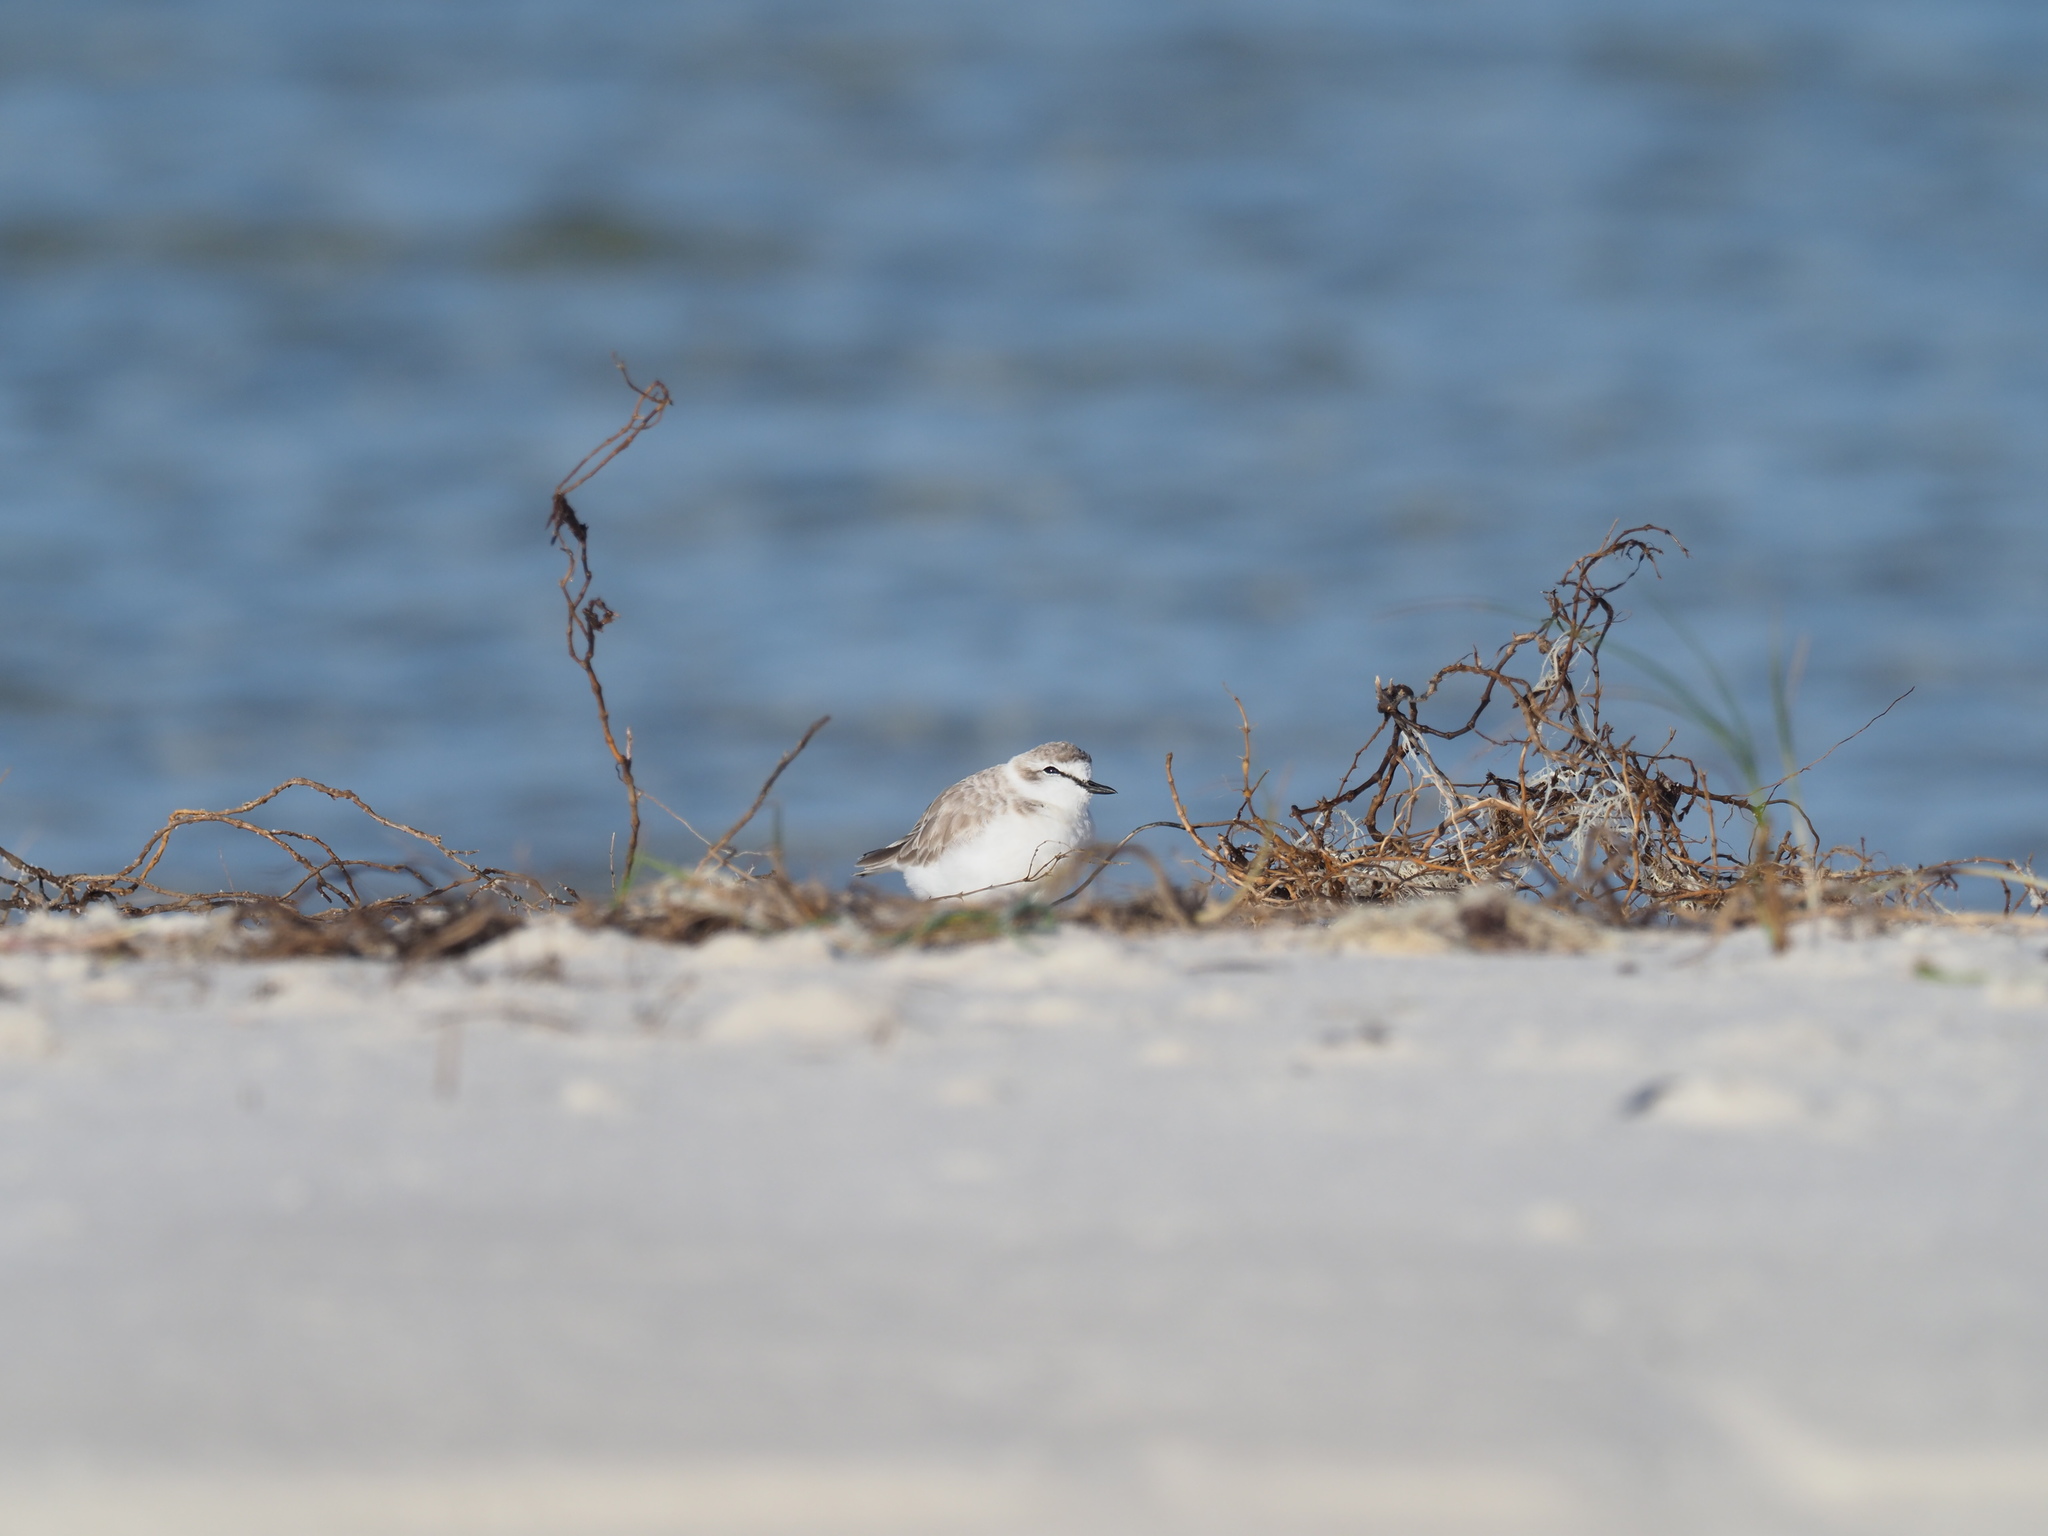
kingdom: Animalia
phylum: Chordata
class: Aves
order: Charadriiformes
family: Charadriidae
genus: Anarhynchus
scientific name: Anarhynchus
